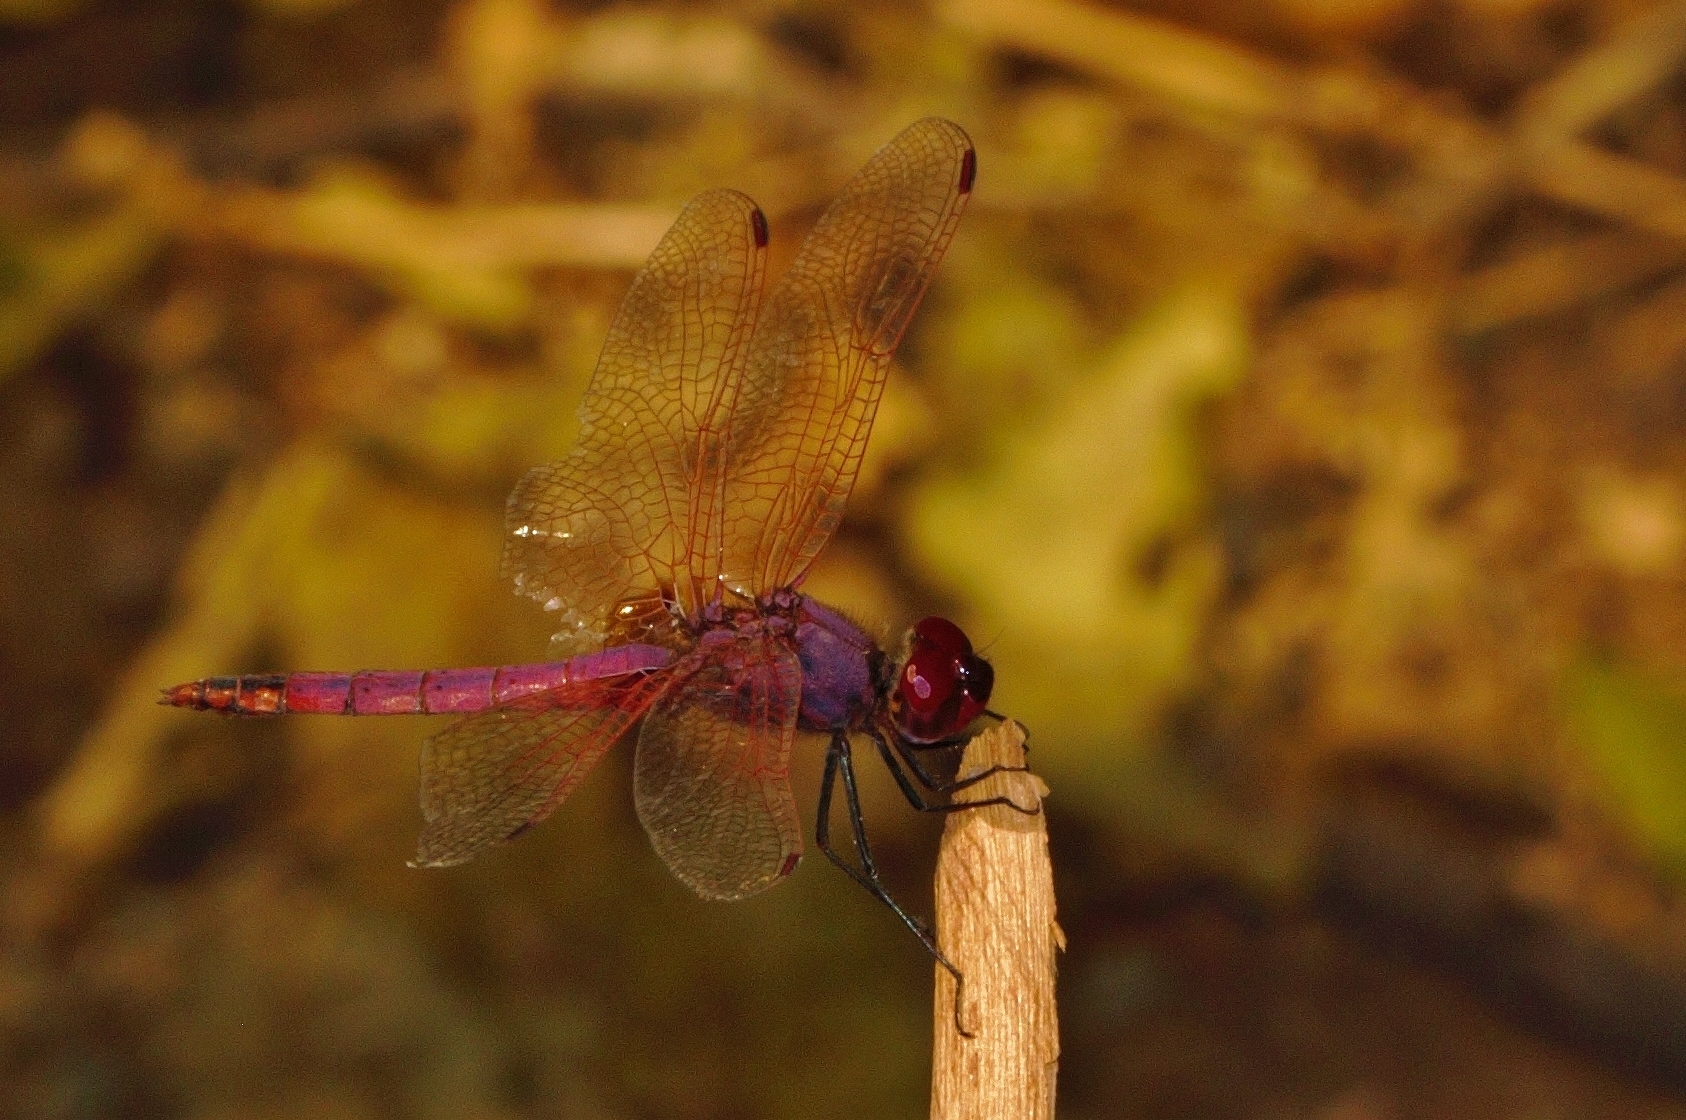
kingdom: Animalia
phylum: Arthropoda
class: Insecta
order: Odonata
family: Libellulidae
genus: Trithemis
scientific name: Trithemis annulata
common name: Violet dropwing
